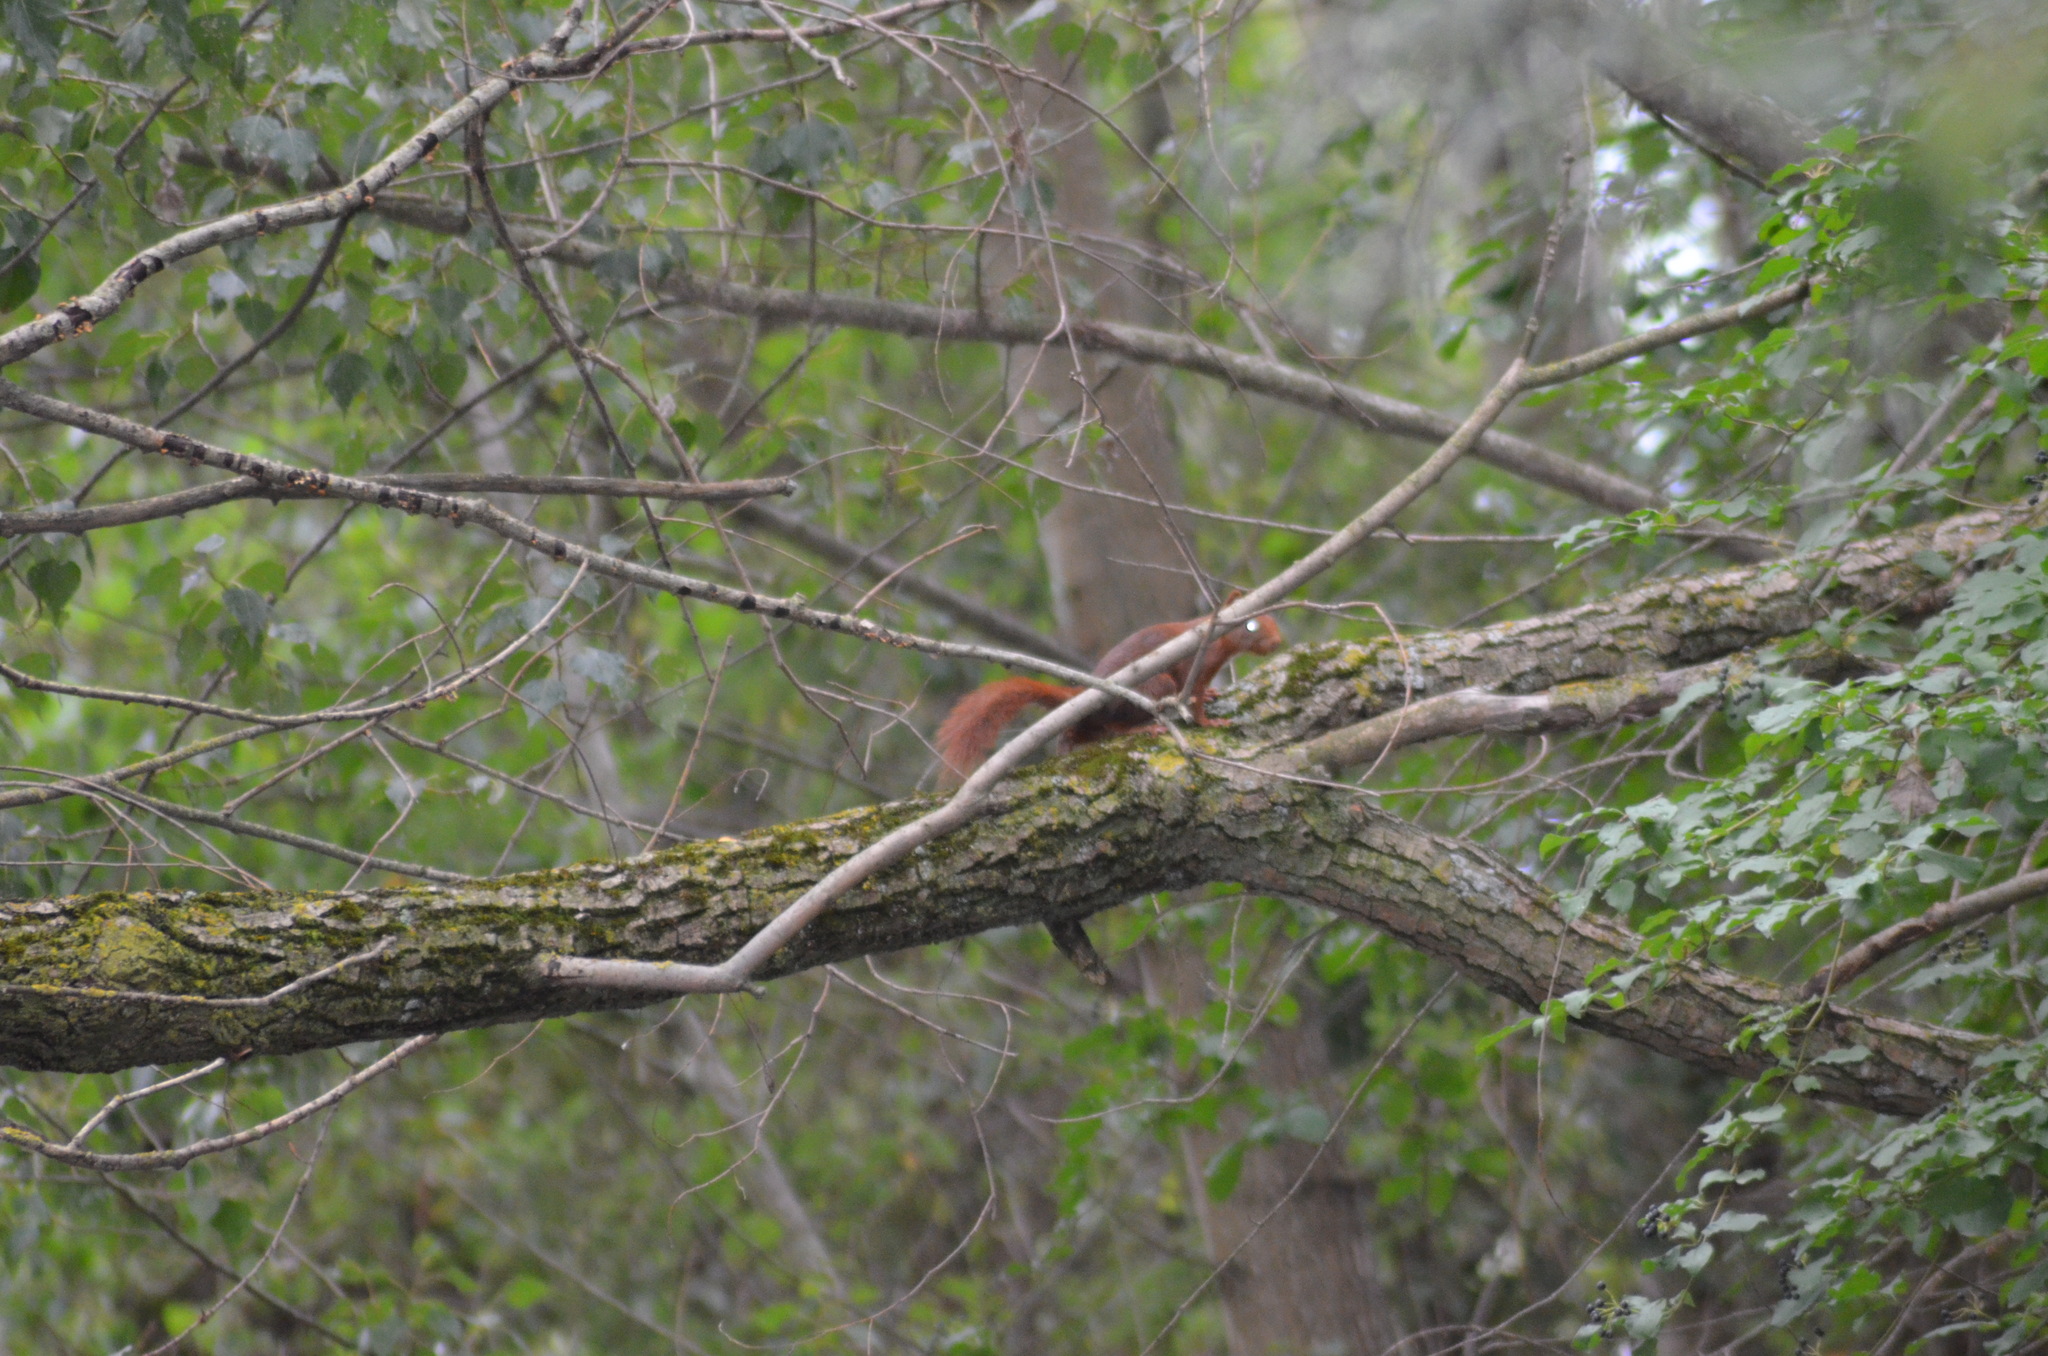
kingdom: Animalia
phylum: Chordata
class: Mammalia
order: Rodentia
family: Sciuridae
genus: Sciurus
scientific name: Sciurus vulgaris
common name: Eurasian red squirrel
